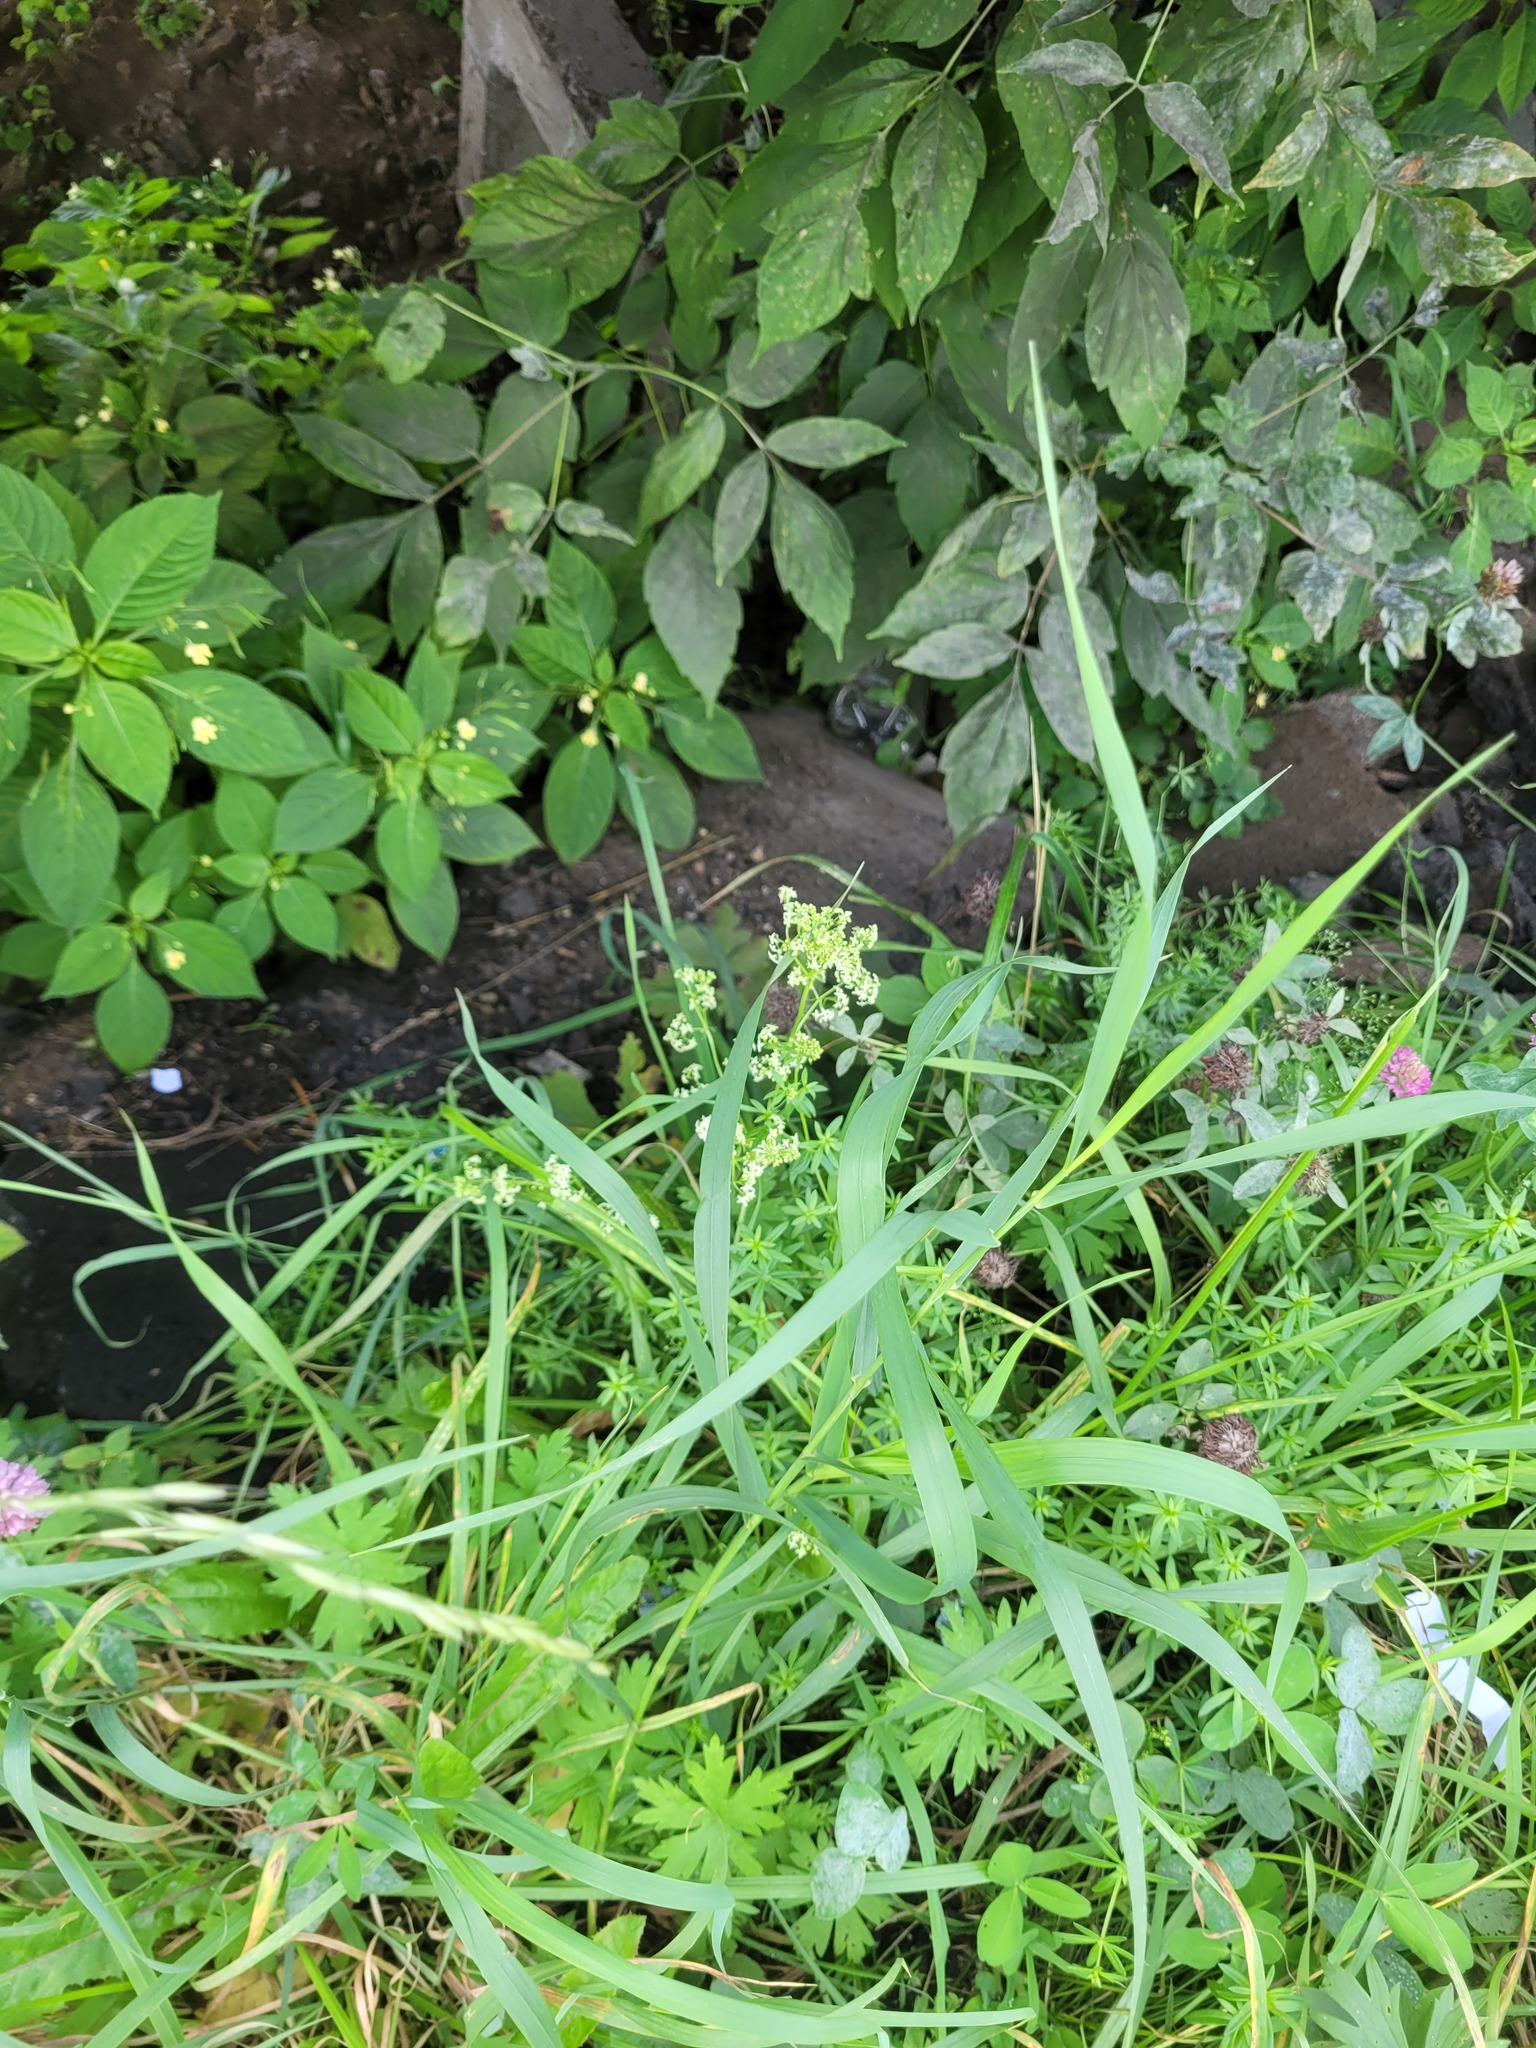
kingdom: Plantae
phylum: Tracheophyta
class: Magnoliopsida
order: Gentianales
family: Rubiaceae
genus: Galium
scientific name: Galium mollugo
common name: Hedge bedstraw
